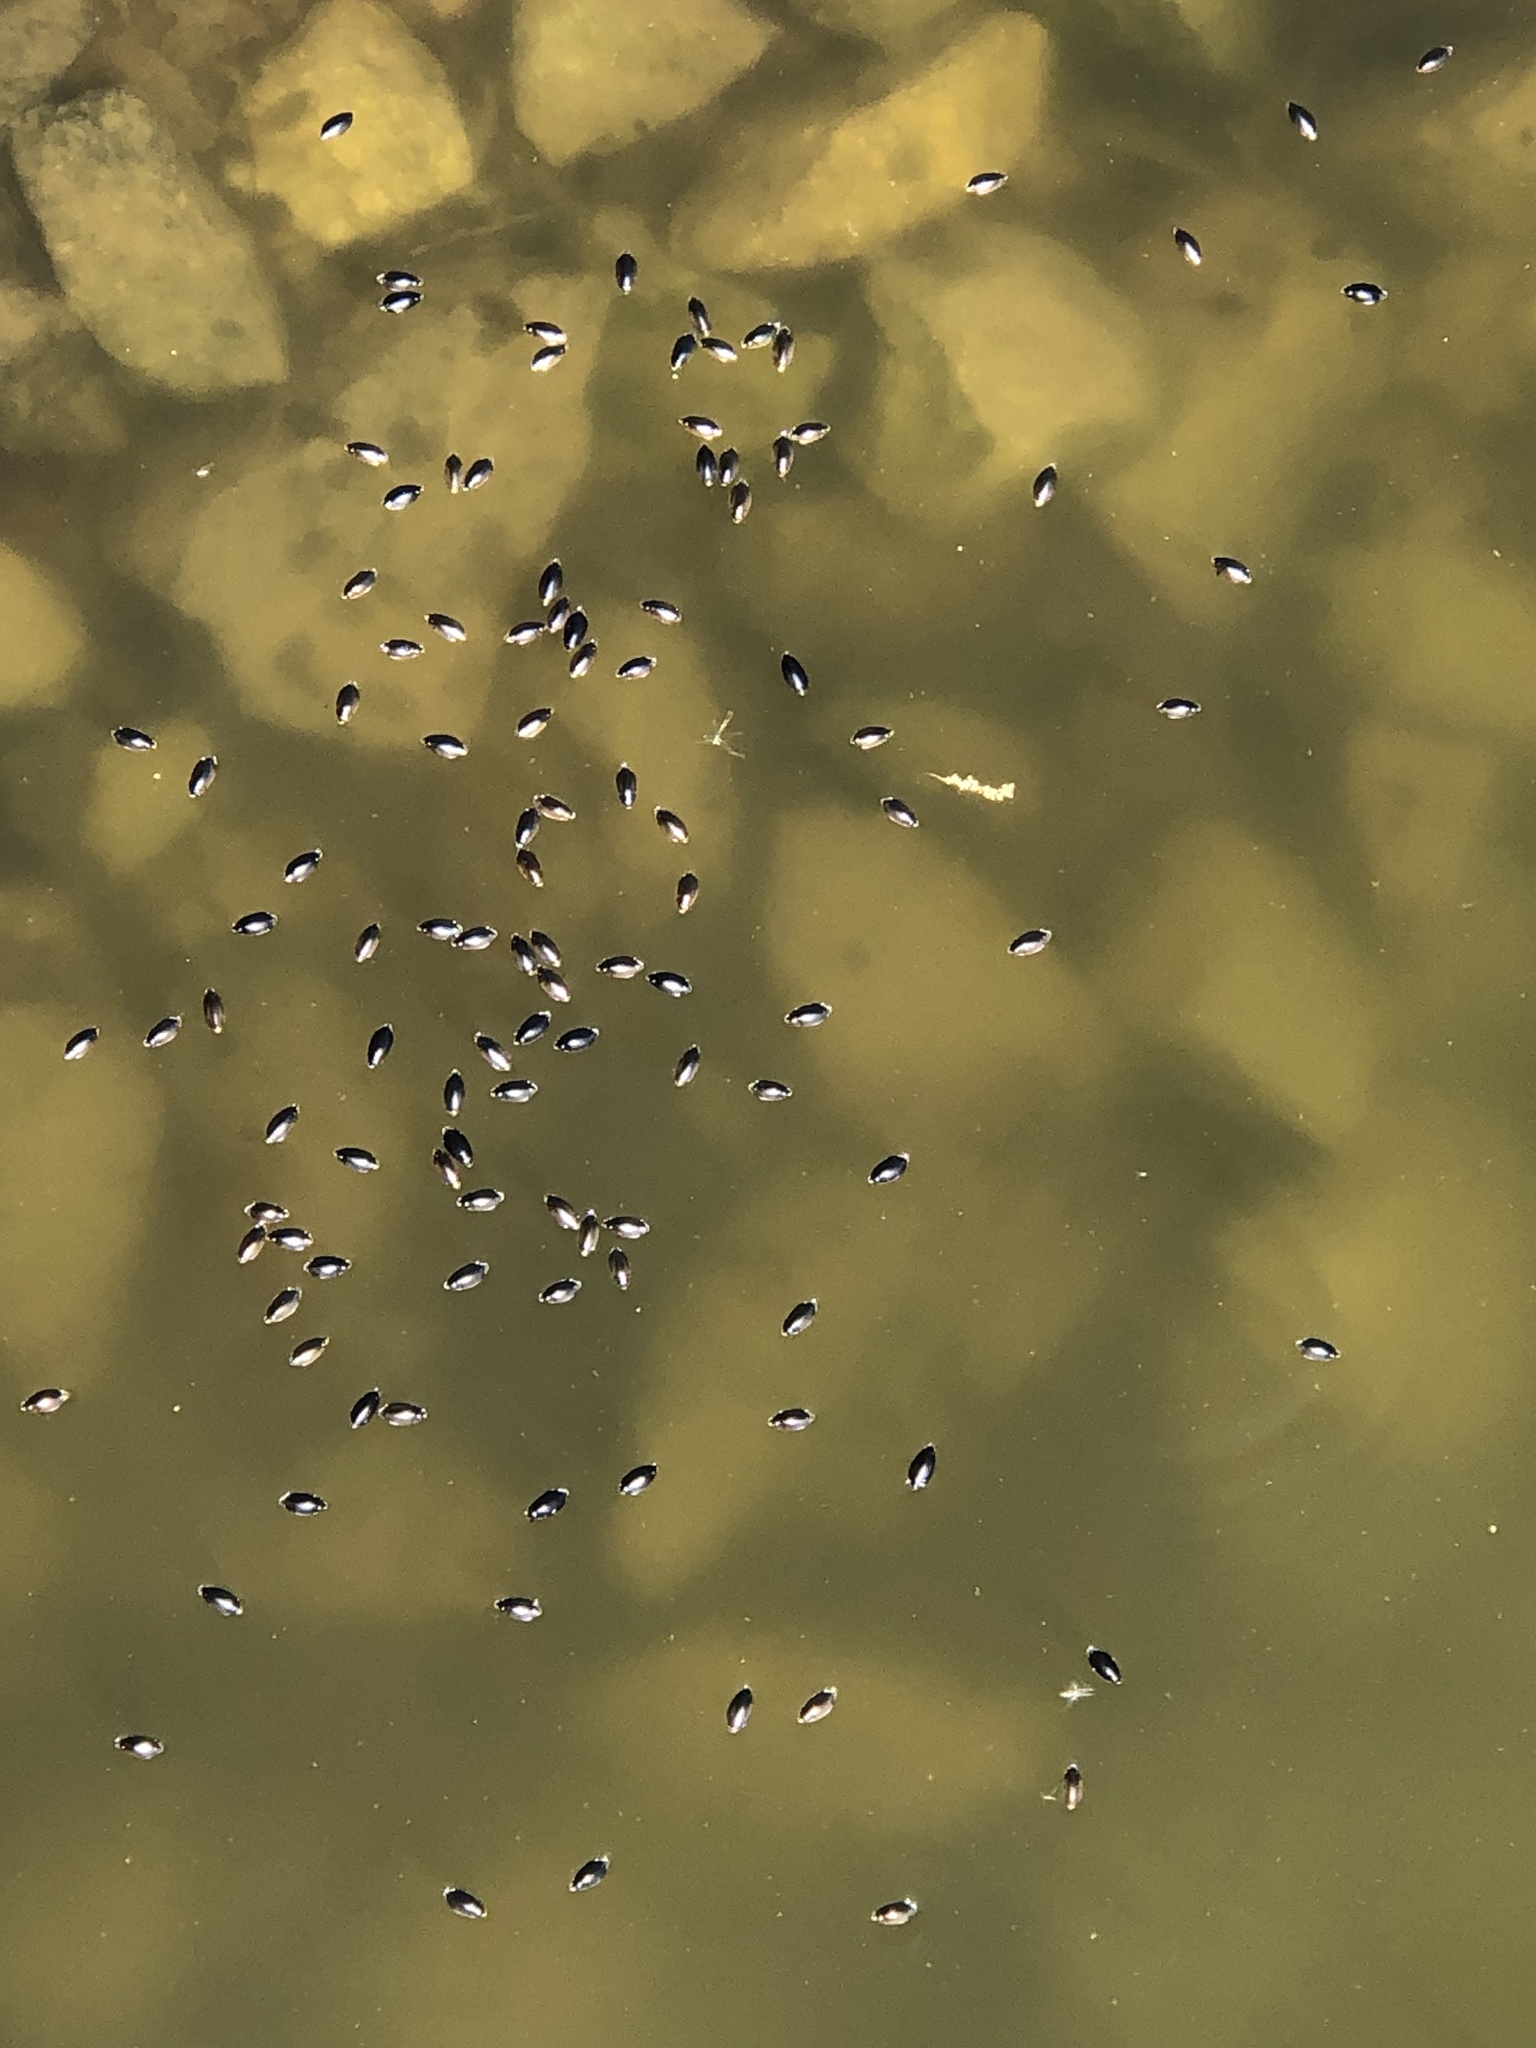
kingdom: Animalia
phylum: Arthropoda
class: Insecta
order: Coleoptera
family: Gyrinidae
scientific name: Gyrinidae
